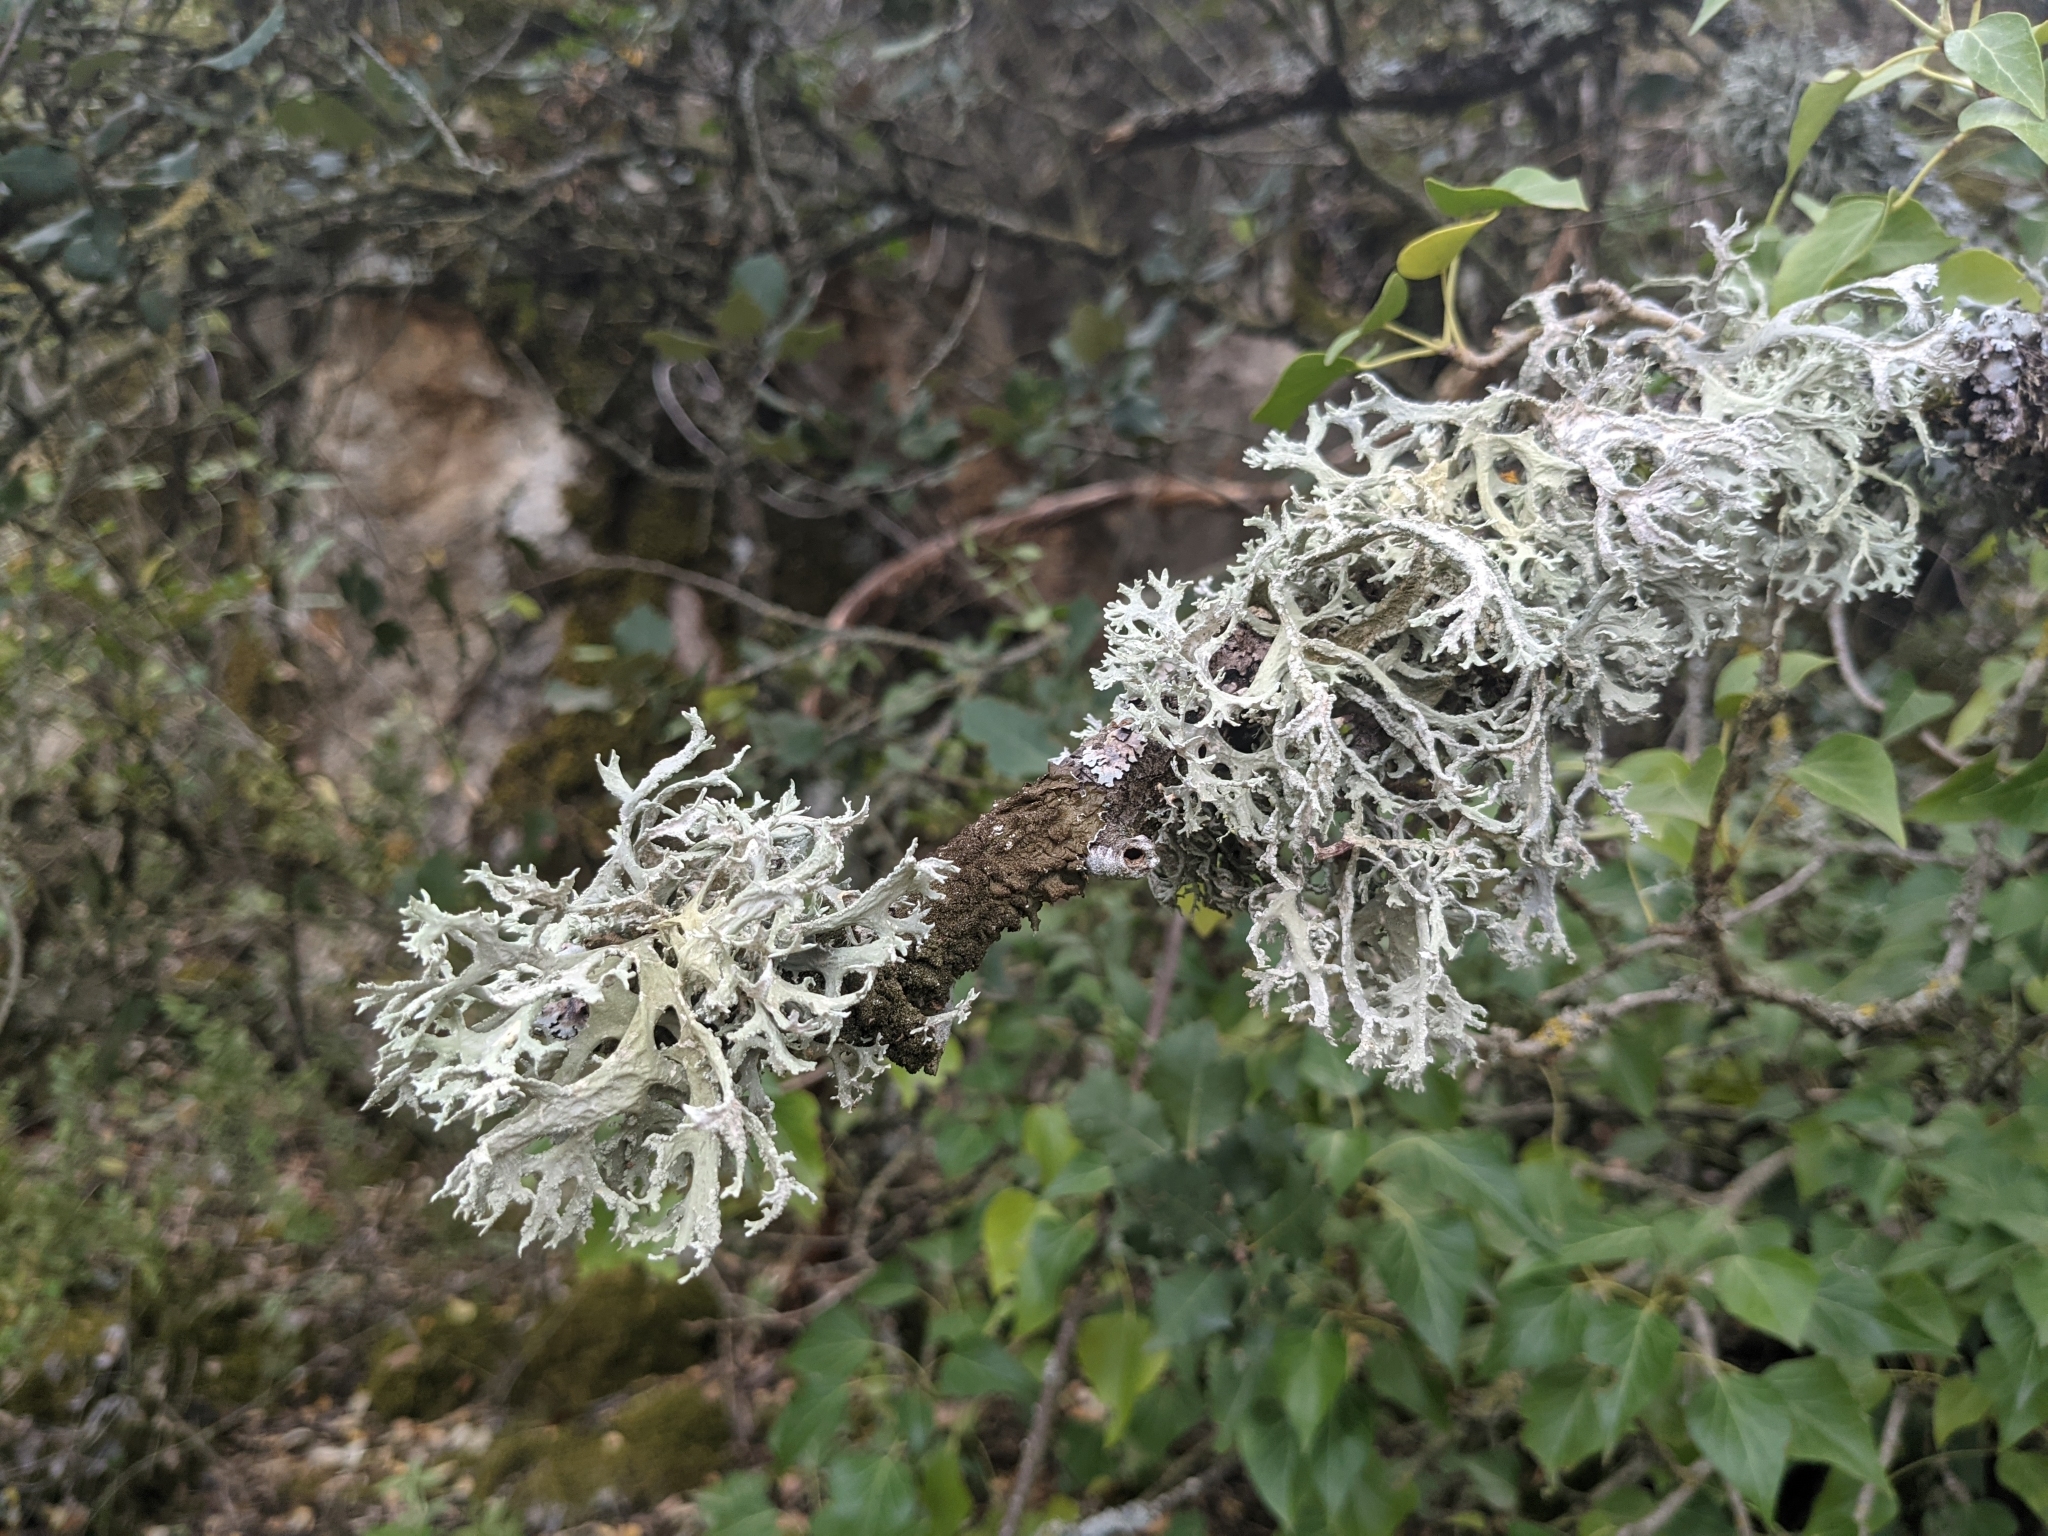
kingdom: Fungi
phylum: Ascomycota
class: Lecanoromycetes
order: Lecanorales
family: Parmeliaceae
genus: Evernia
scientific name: Evernia prunastri
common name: Oak moss
